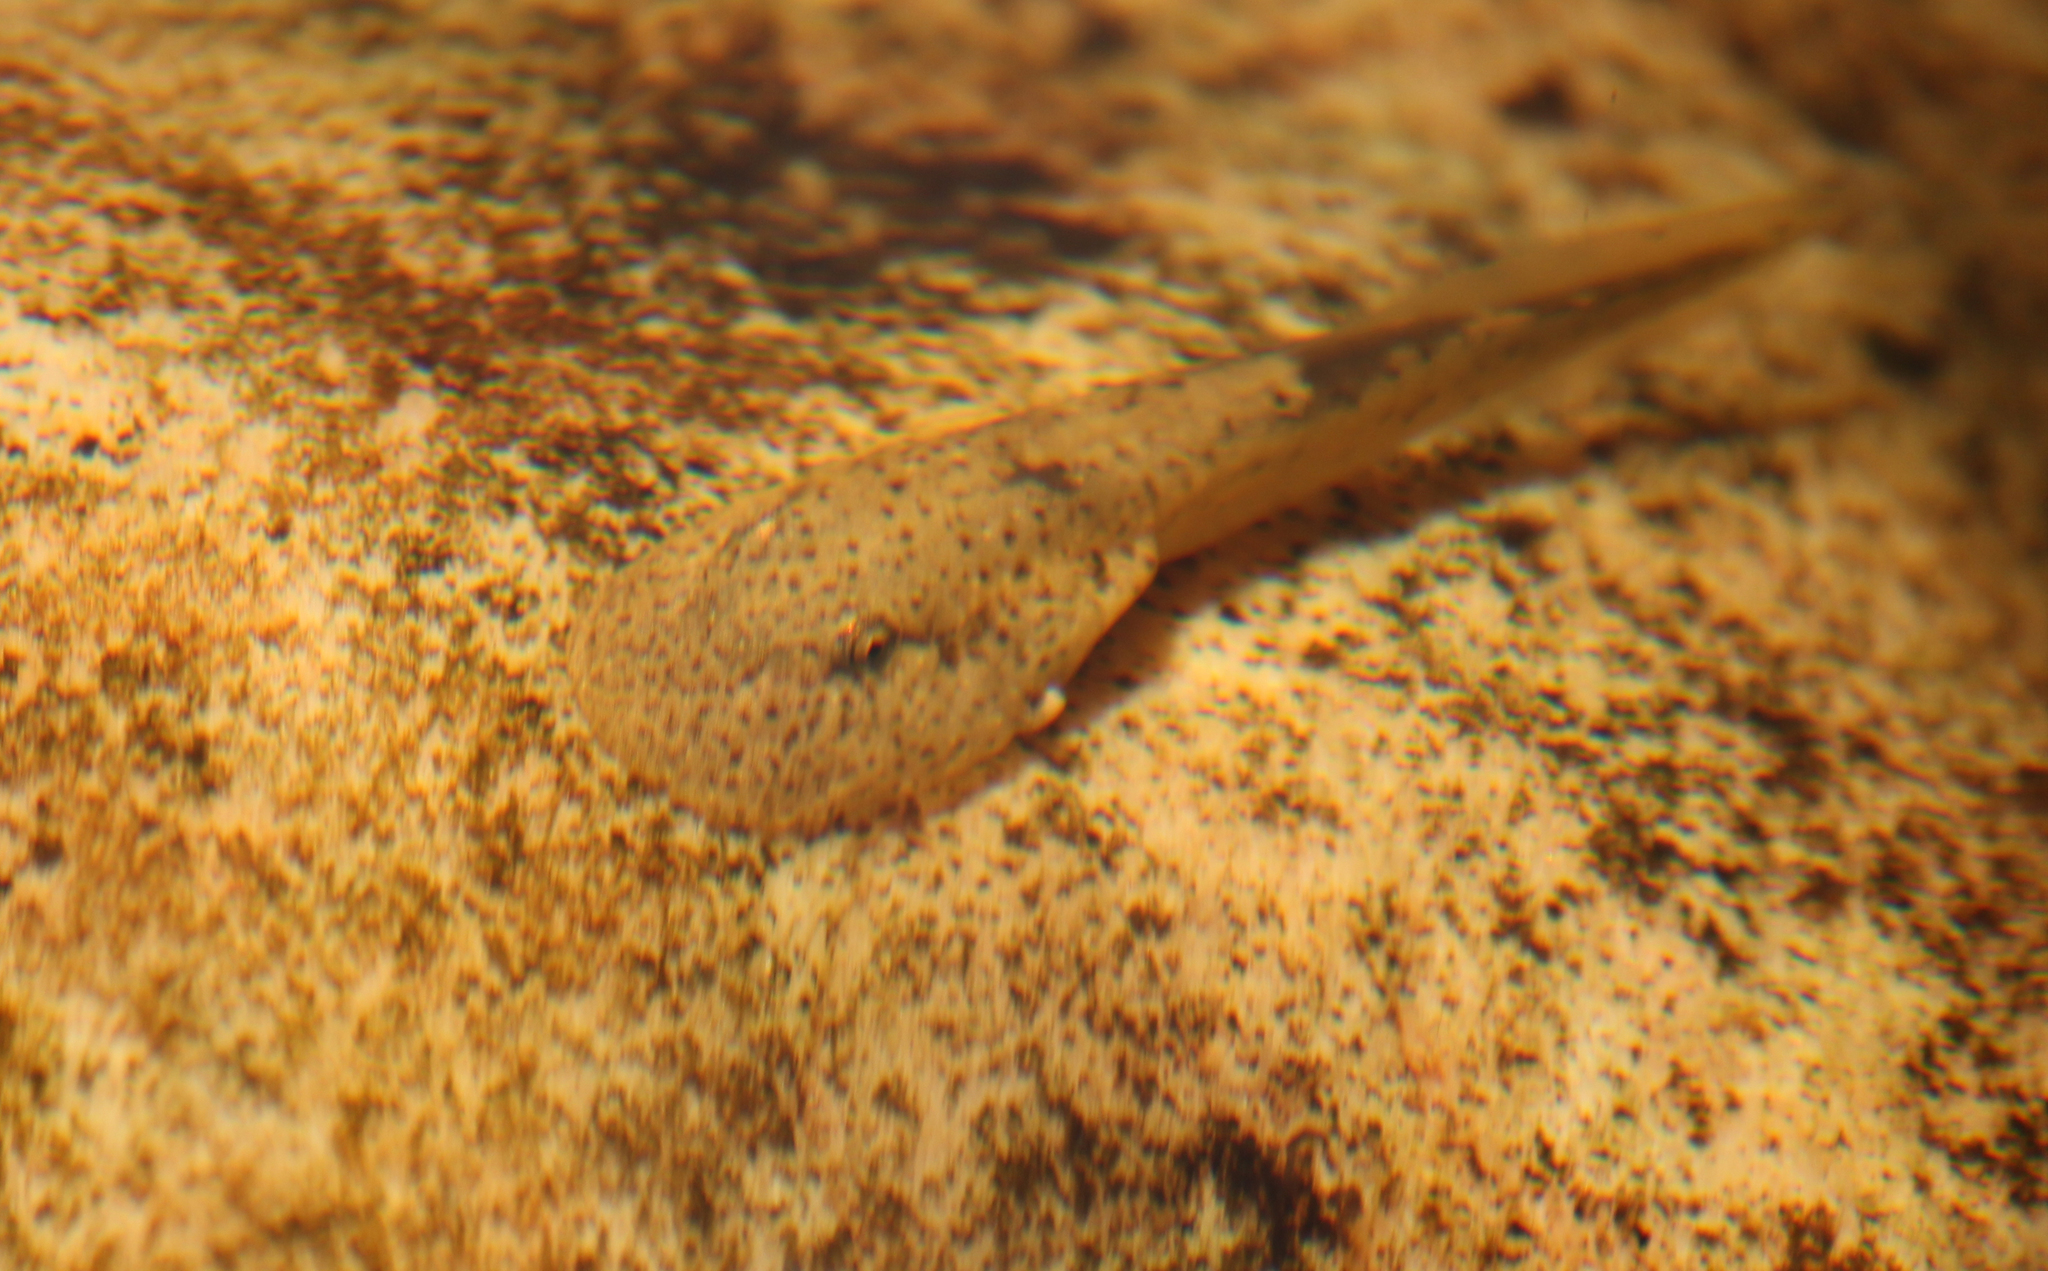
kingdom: Animalia
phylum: Chordata
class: Amphibia
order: Anura
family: Heleophrynidae
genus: Heleophryne
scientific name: Heleophryne purcelli
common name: Purcell's ghost frog
